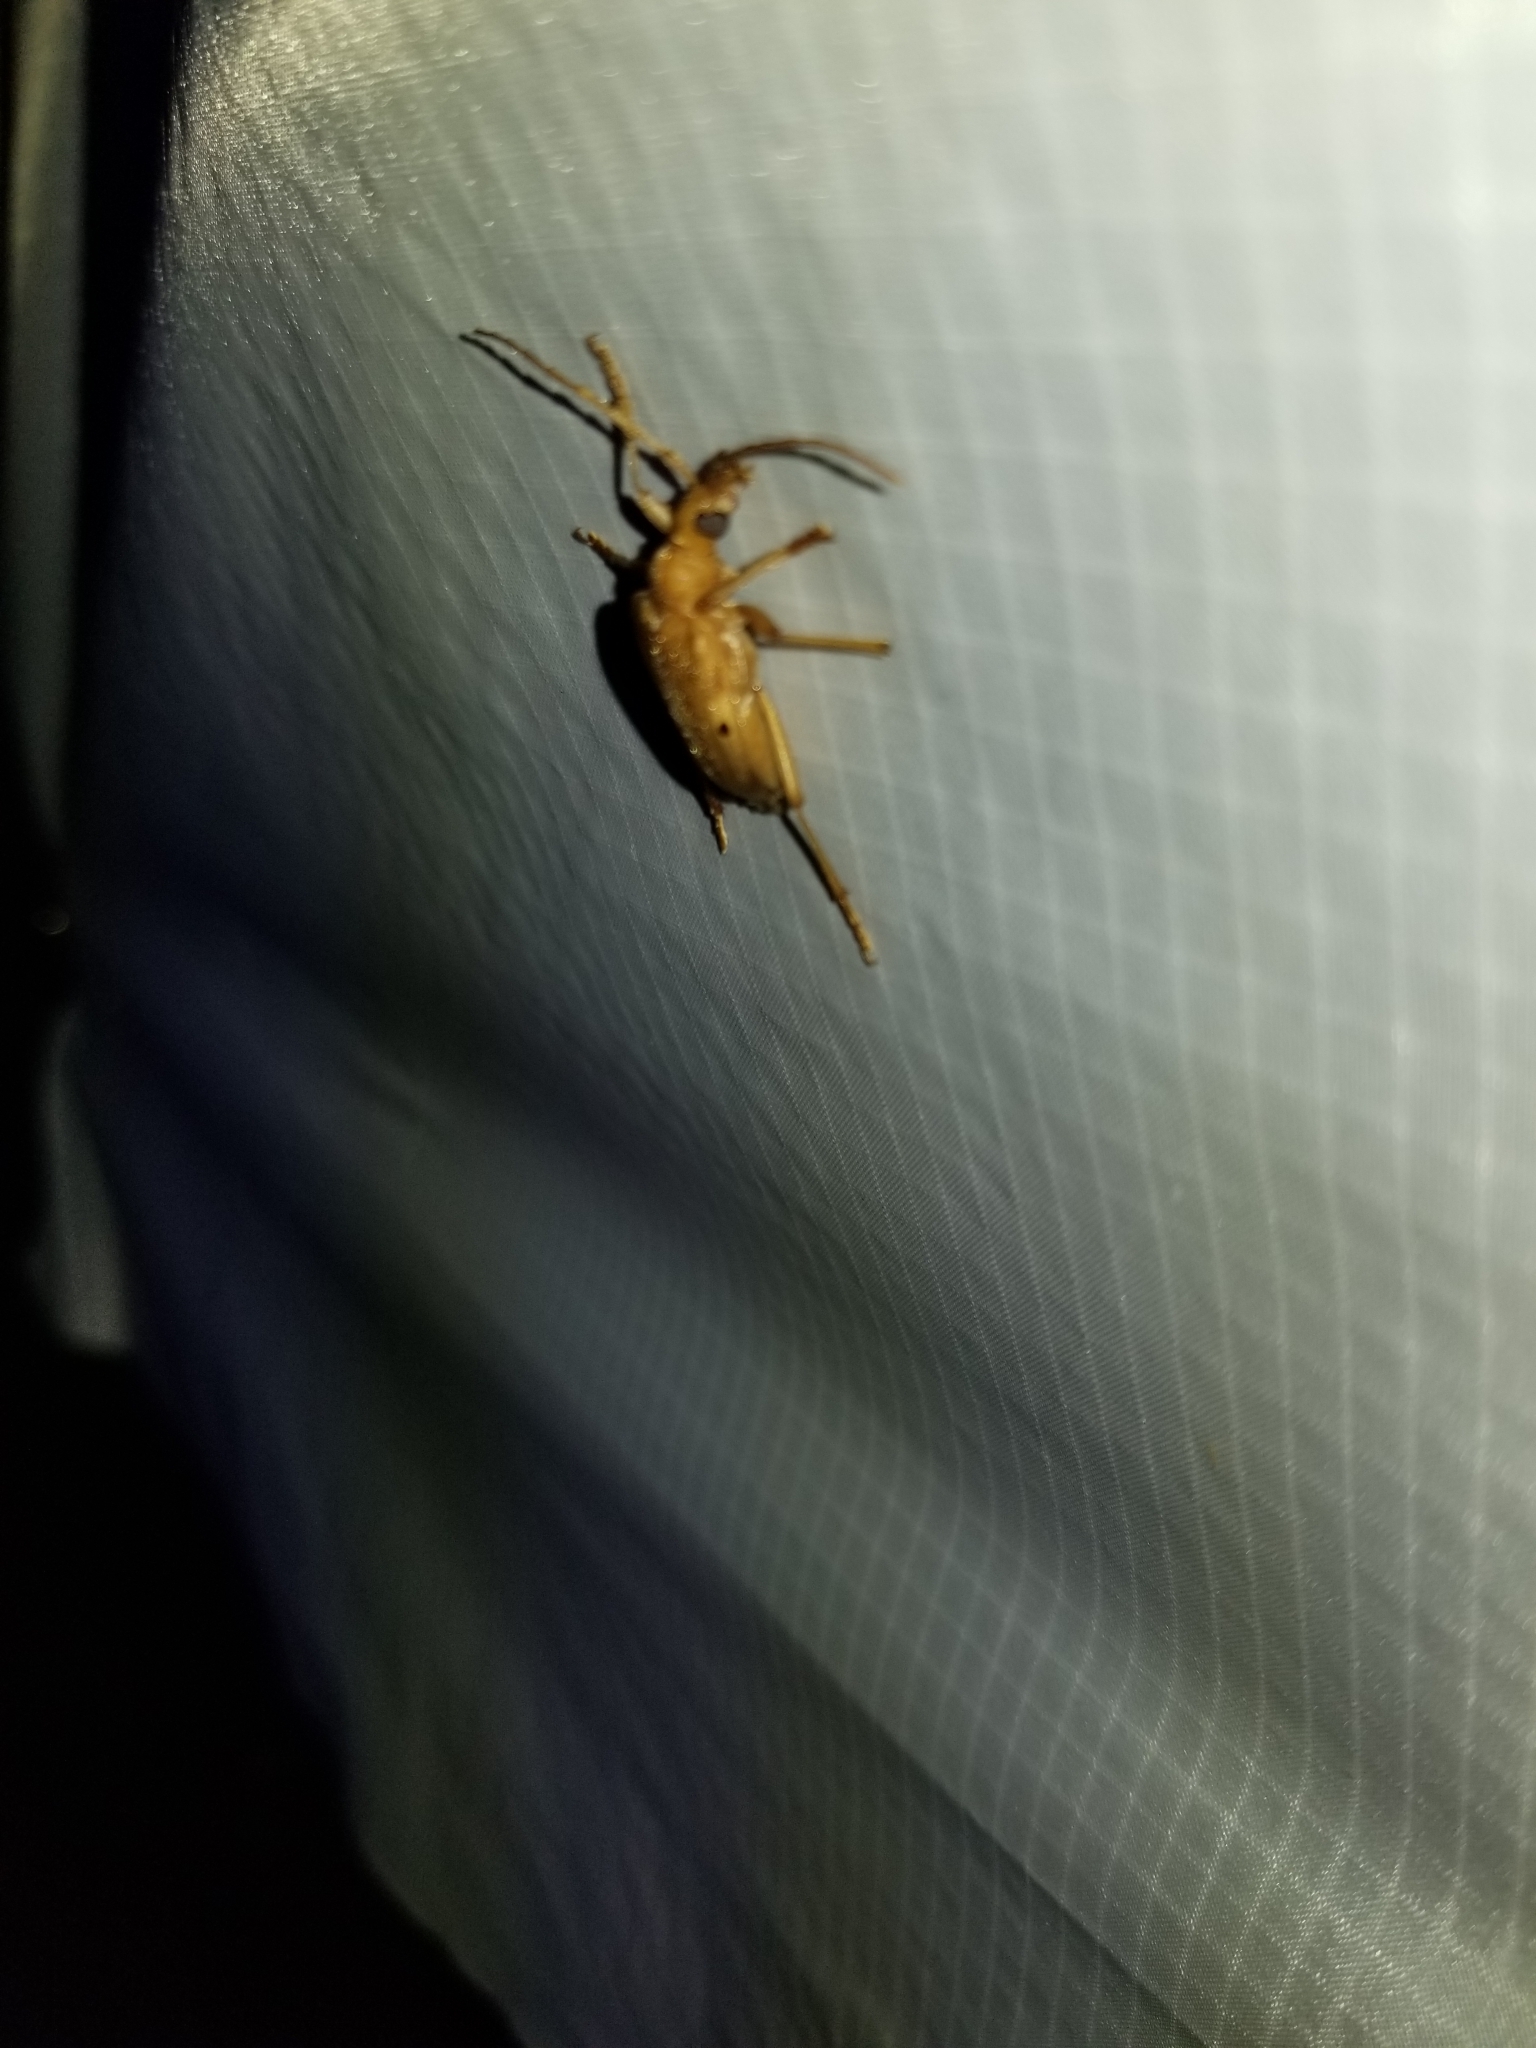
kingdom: Animalia
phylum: Arthropoda
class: Insecta
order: Coleoptera
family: Cerambycidae
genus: Centrodera
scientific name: Centrodera spurca
